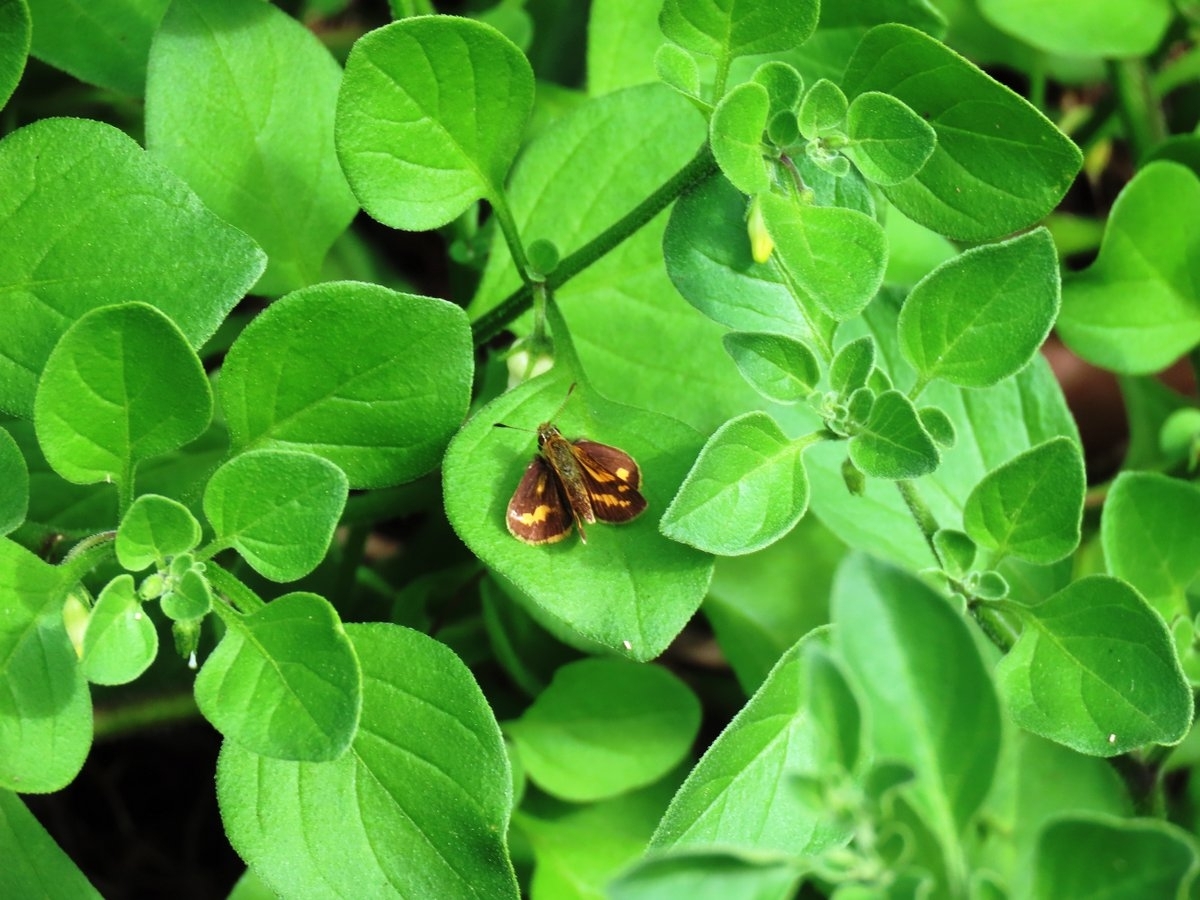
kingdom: Animalia
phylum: Arthropoda
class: Insecta
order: Lepidoptera
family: Hesperiidae
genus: Ocybadistes
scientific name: Ocybadistes walkeri
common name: Yellow-banded dart
